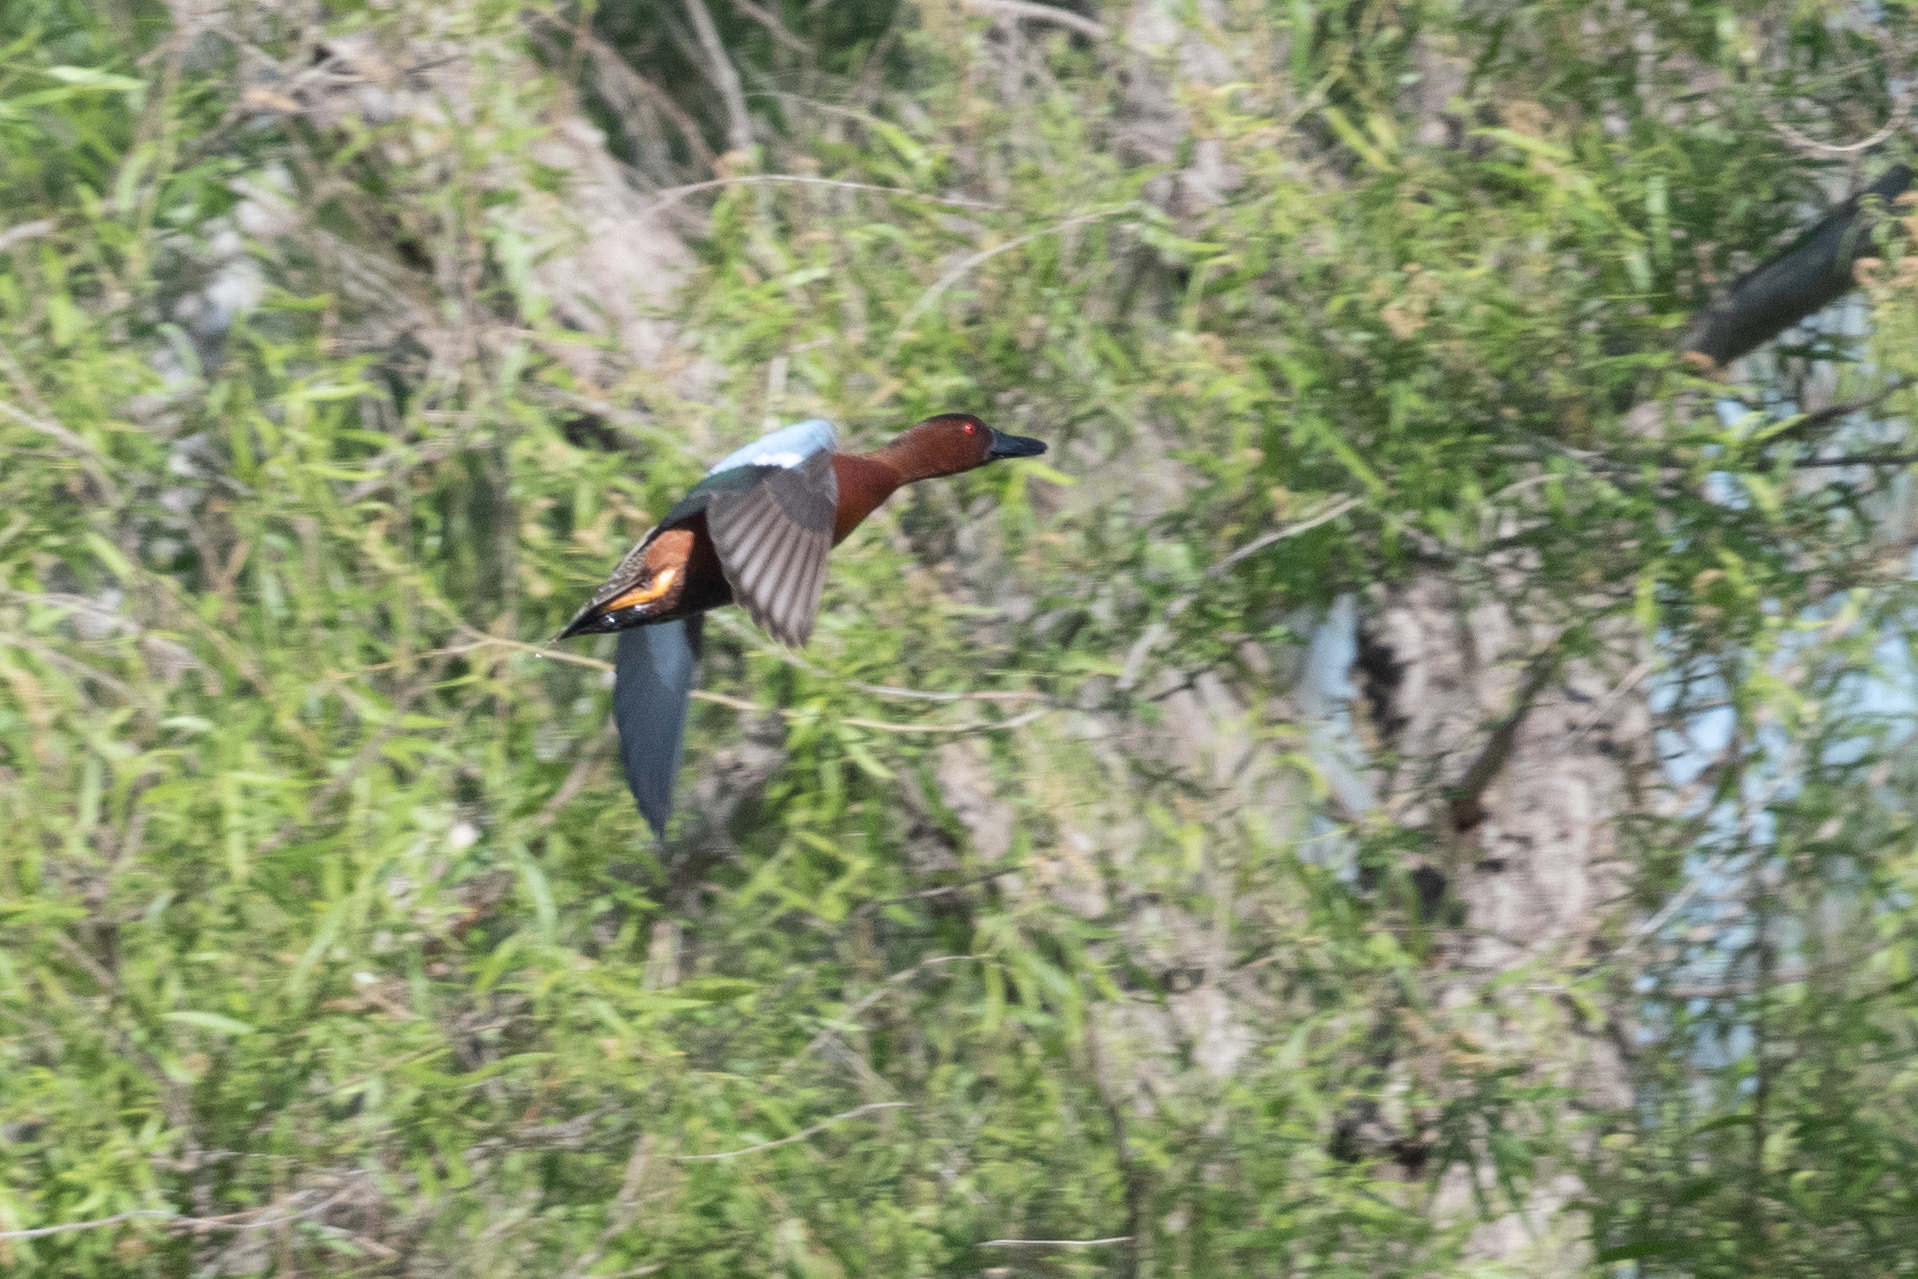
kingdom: Animalia
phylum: Chordata
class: Aves
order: Anseriformes
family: Anatidae
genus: Spatula
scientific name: Spatula cyanoptera
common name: Cinnamon teal
